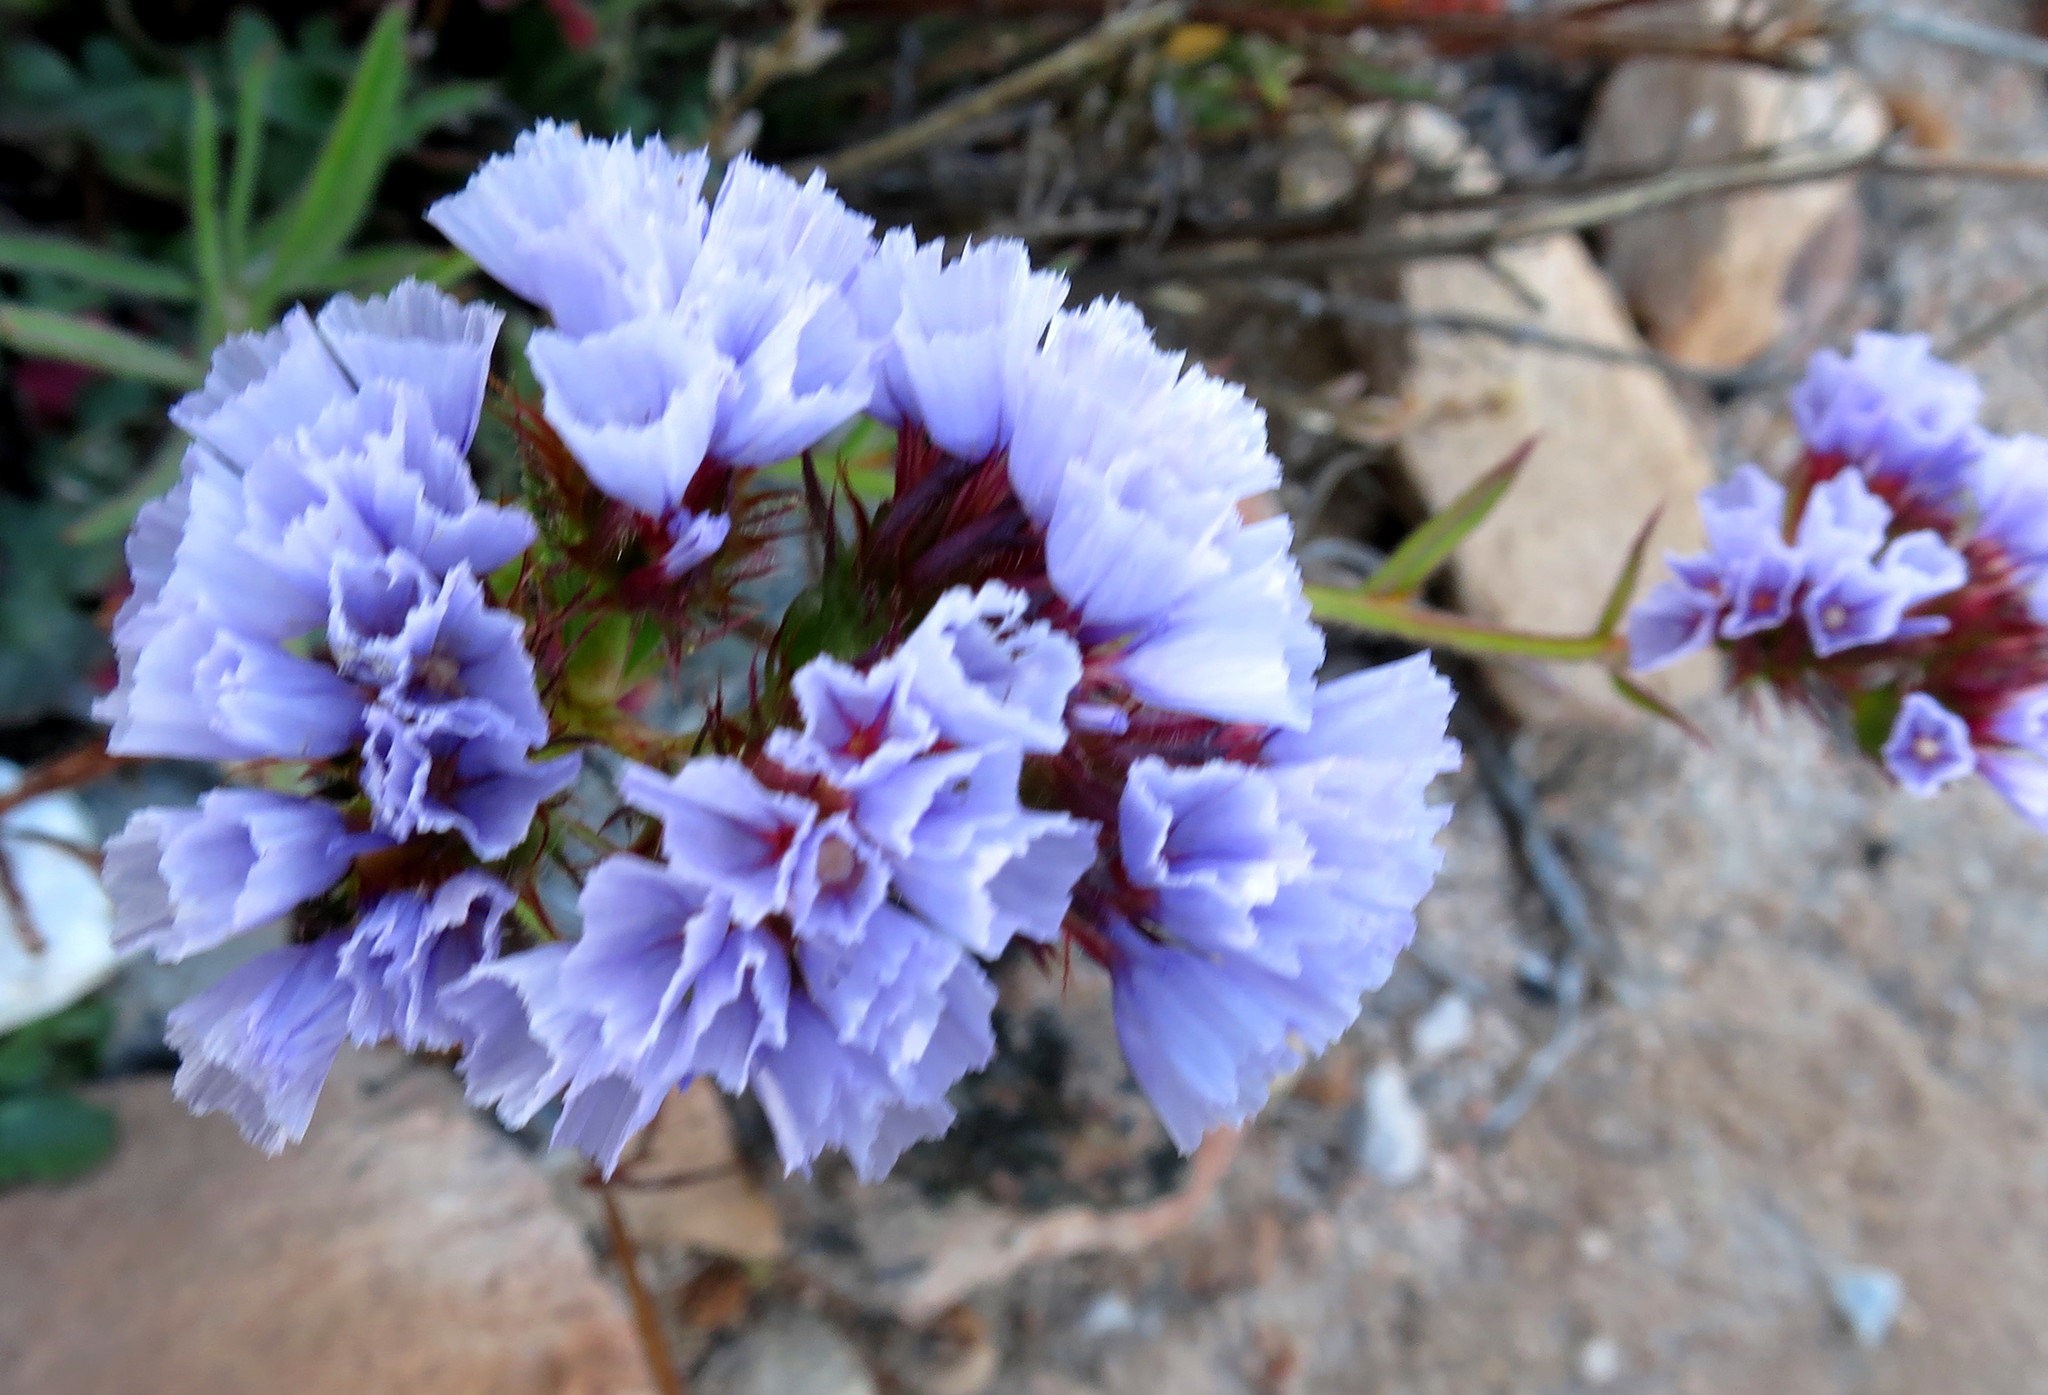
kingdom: Plantae
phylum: Tracheophyta
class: Magnoliopsida
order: Caryophyllales
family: Plumbaginaceae
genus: Limonium
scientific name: Limonium sinuatum
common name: Statice
